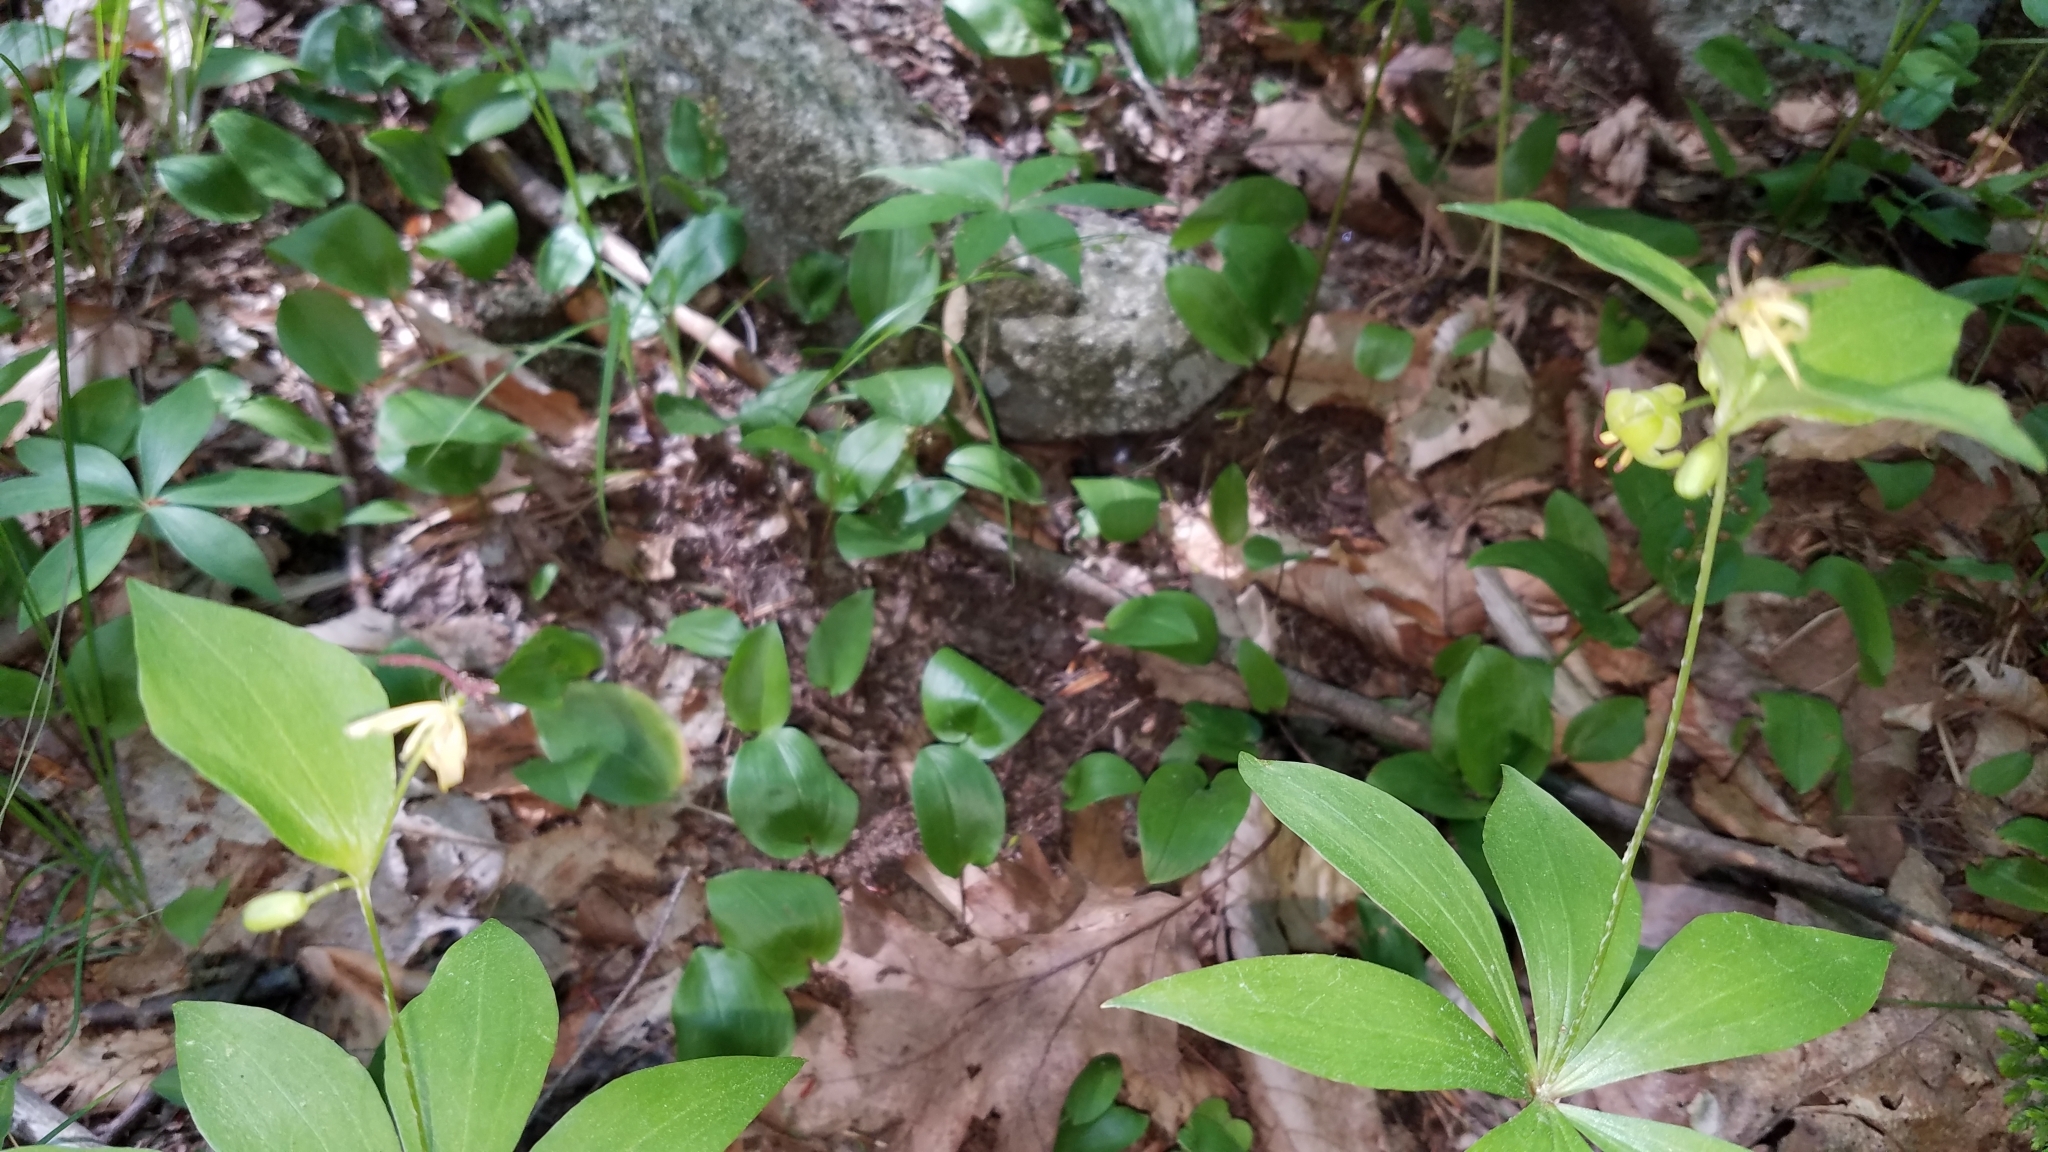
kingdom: Plantae
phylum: Tracheophyta
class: Liliopsida
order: Liliales
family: Liliaceae
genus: Medeola
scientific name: Medeola virginiana
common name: Indian cucumber-root
